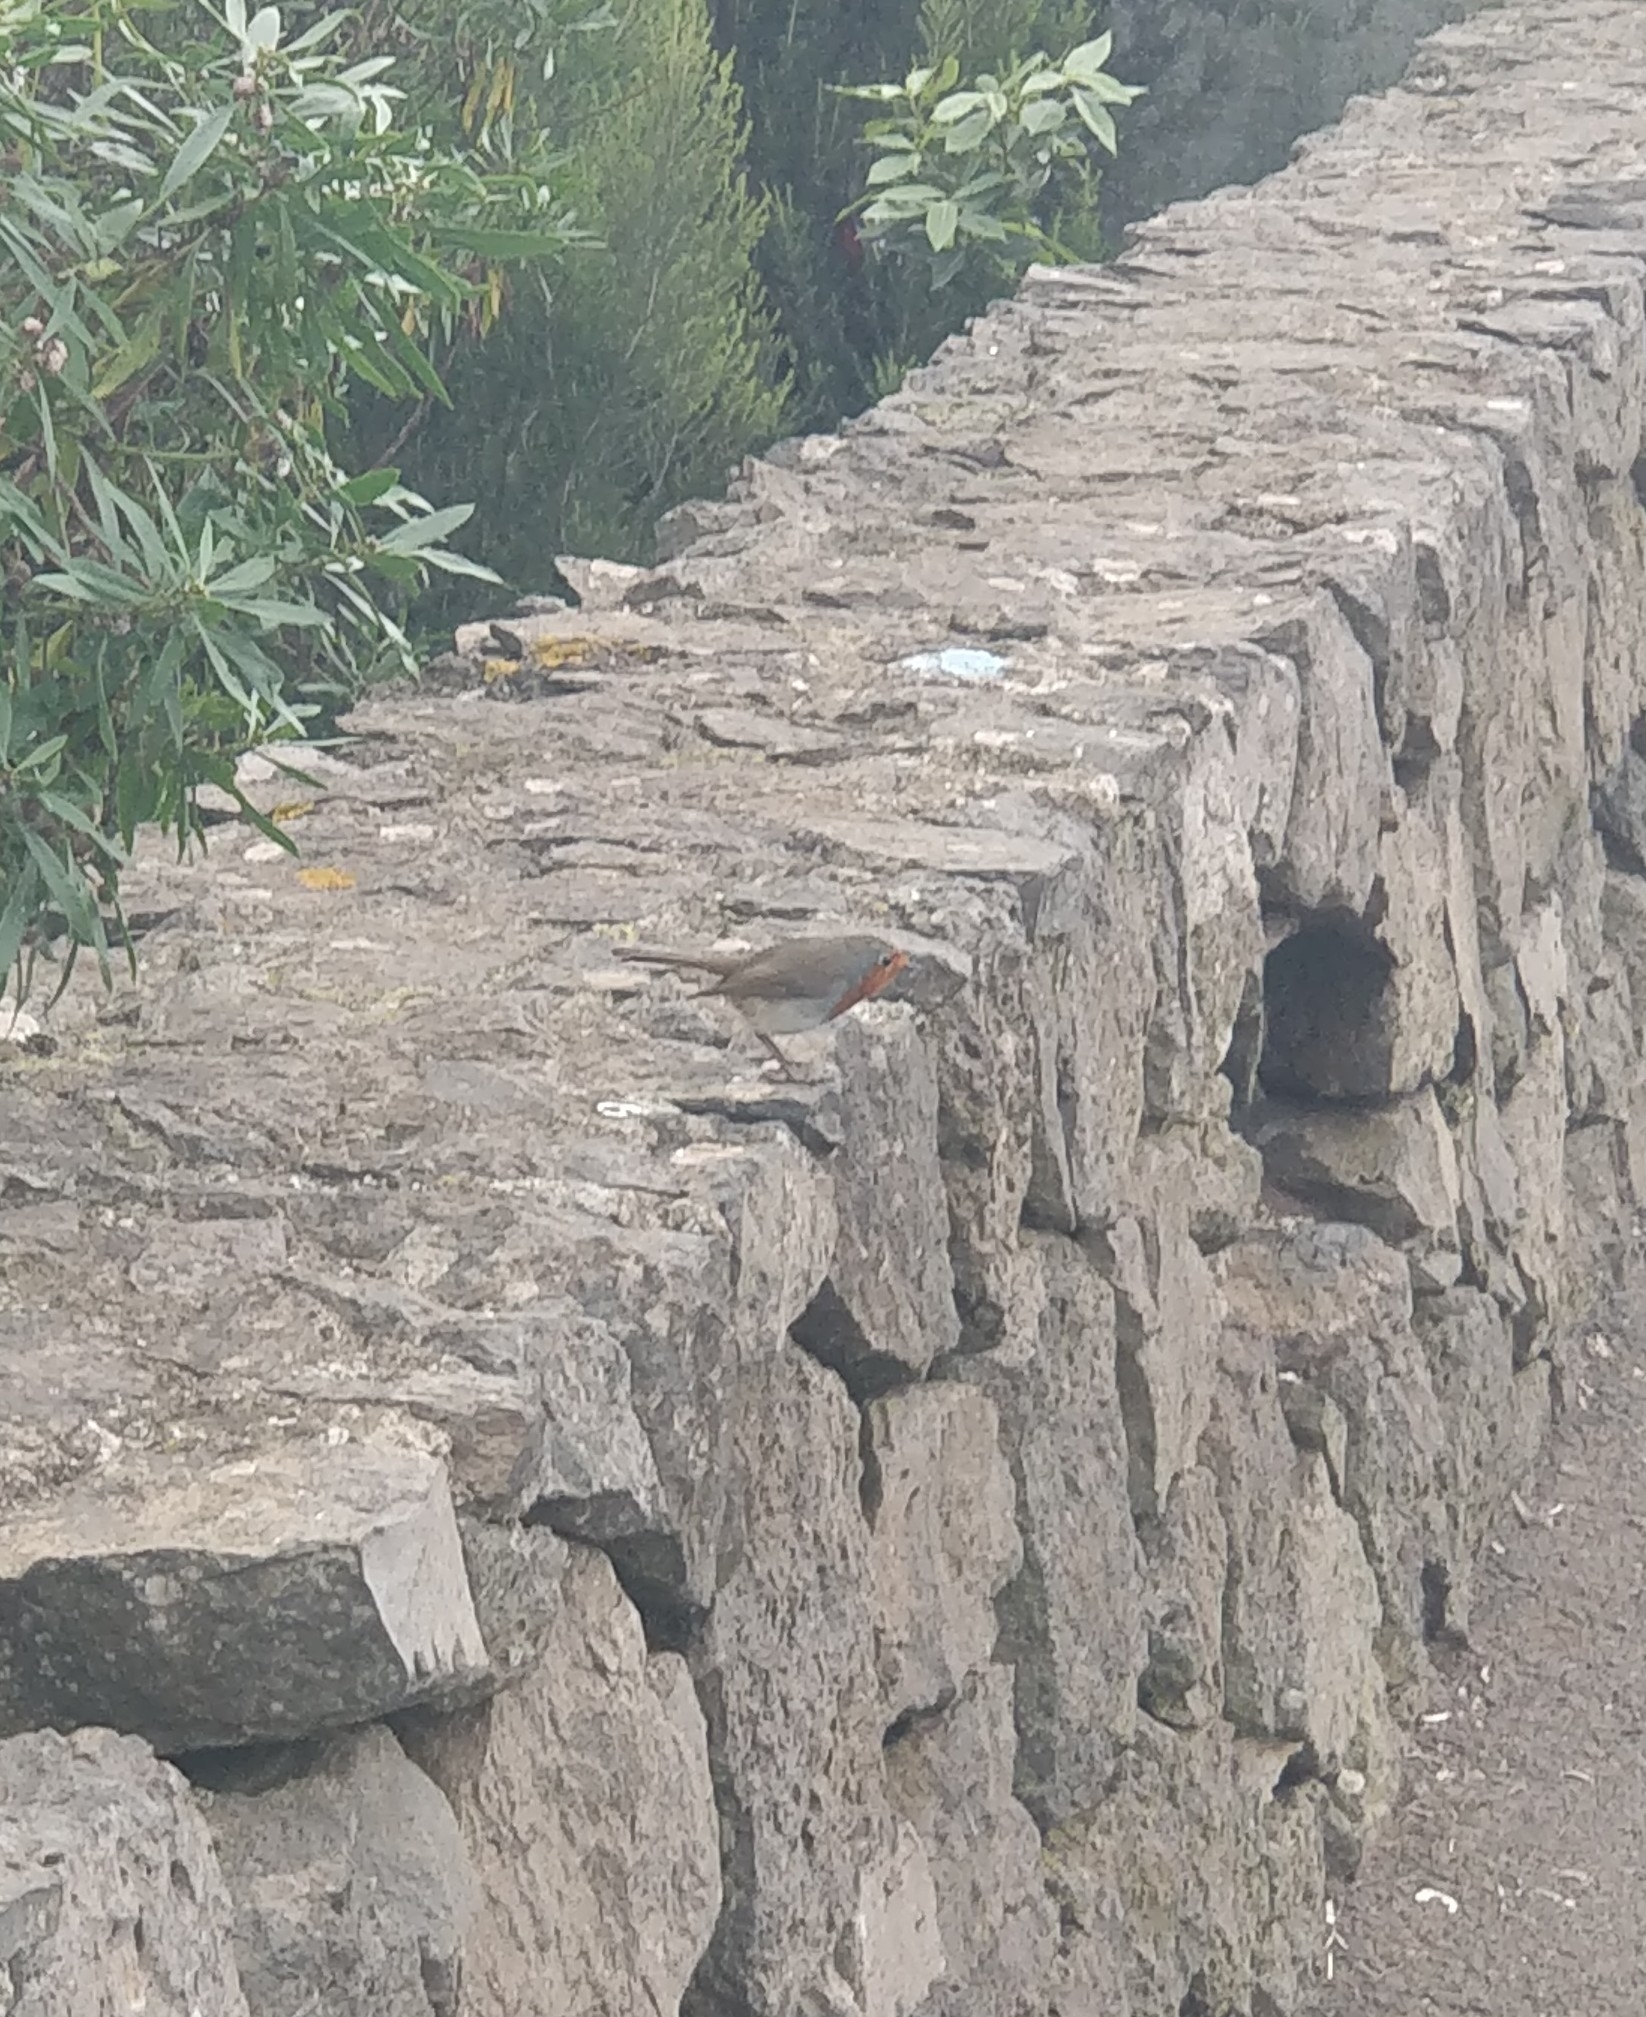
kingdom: Animalia
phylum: Chordata
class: Aves
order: Passeriformes
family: Muscicapidae
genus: Erithacus
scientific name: Erithacus rubecula
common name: European robin
